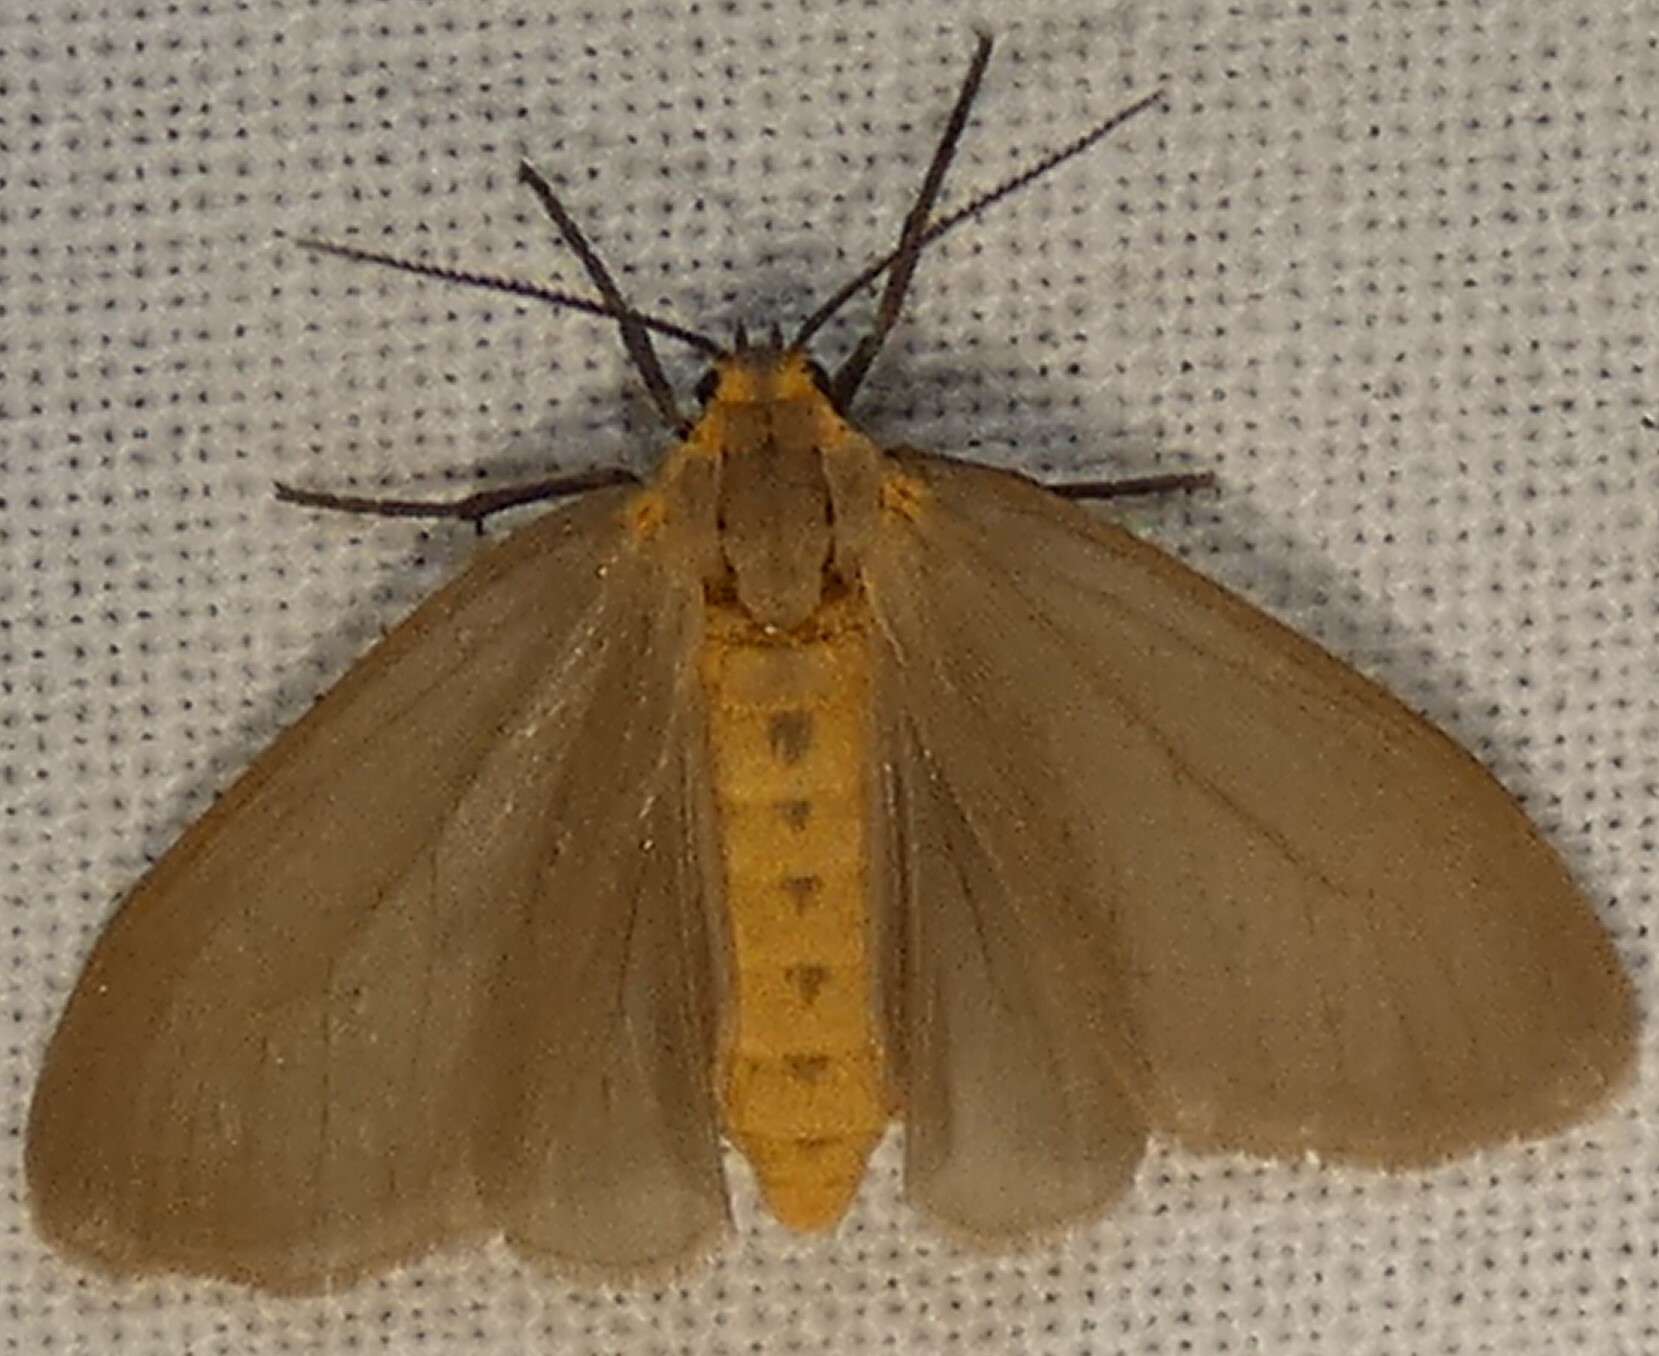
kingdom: Animalia
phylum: Arthropoda
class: Insecta
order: Lepidoptera
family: Erebidae
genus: Pagara
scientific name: Pagara simplex
